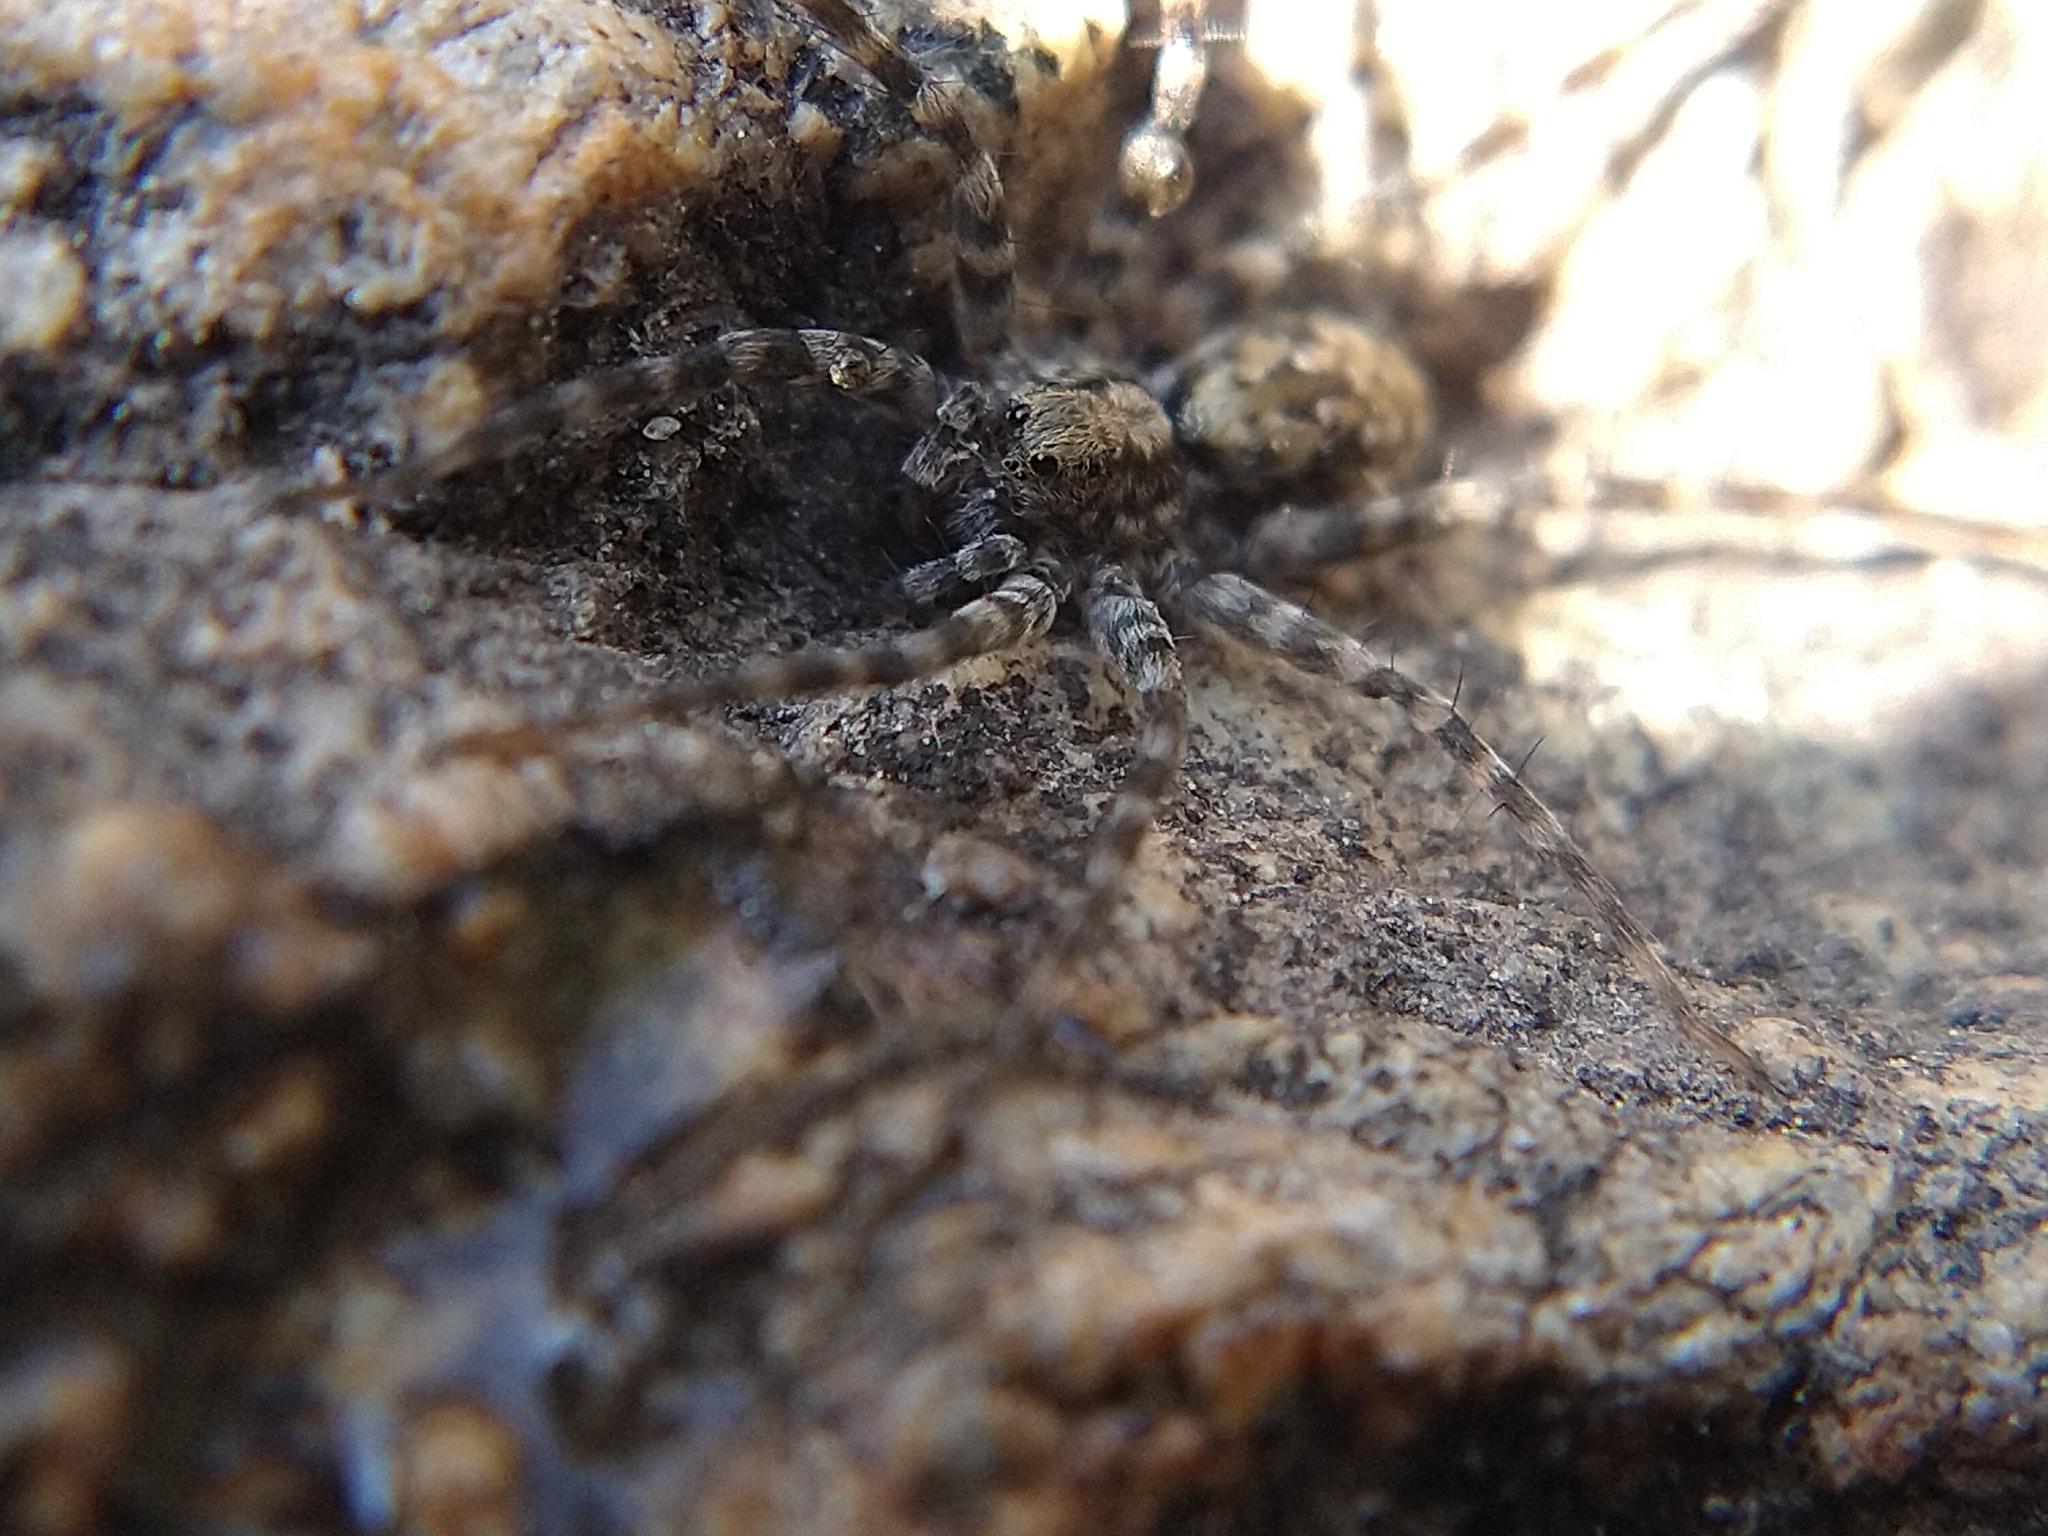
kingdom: Animalia
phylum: Arthropoda
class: Arachnida
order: Araneae
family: Lycosidae
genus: Pardosa
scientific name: Pardosa
